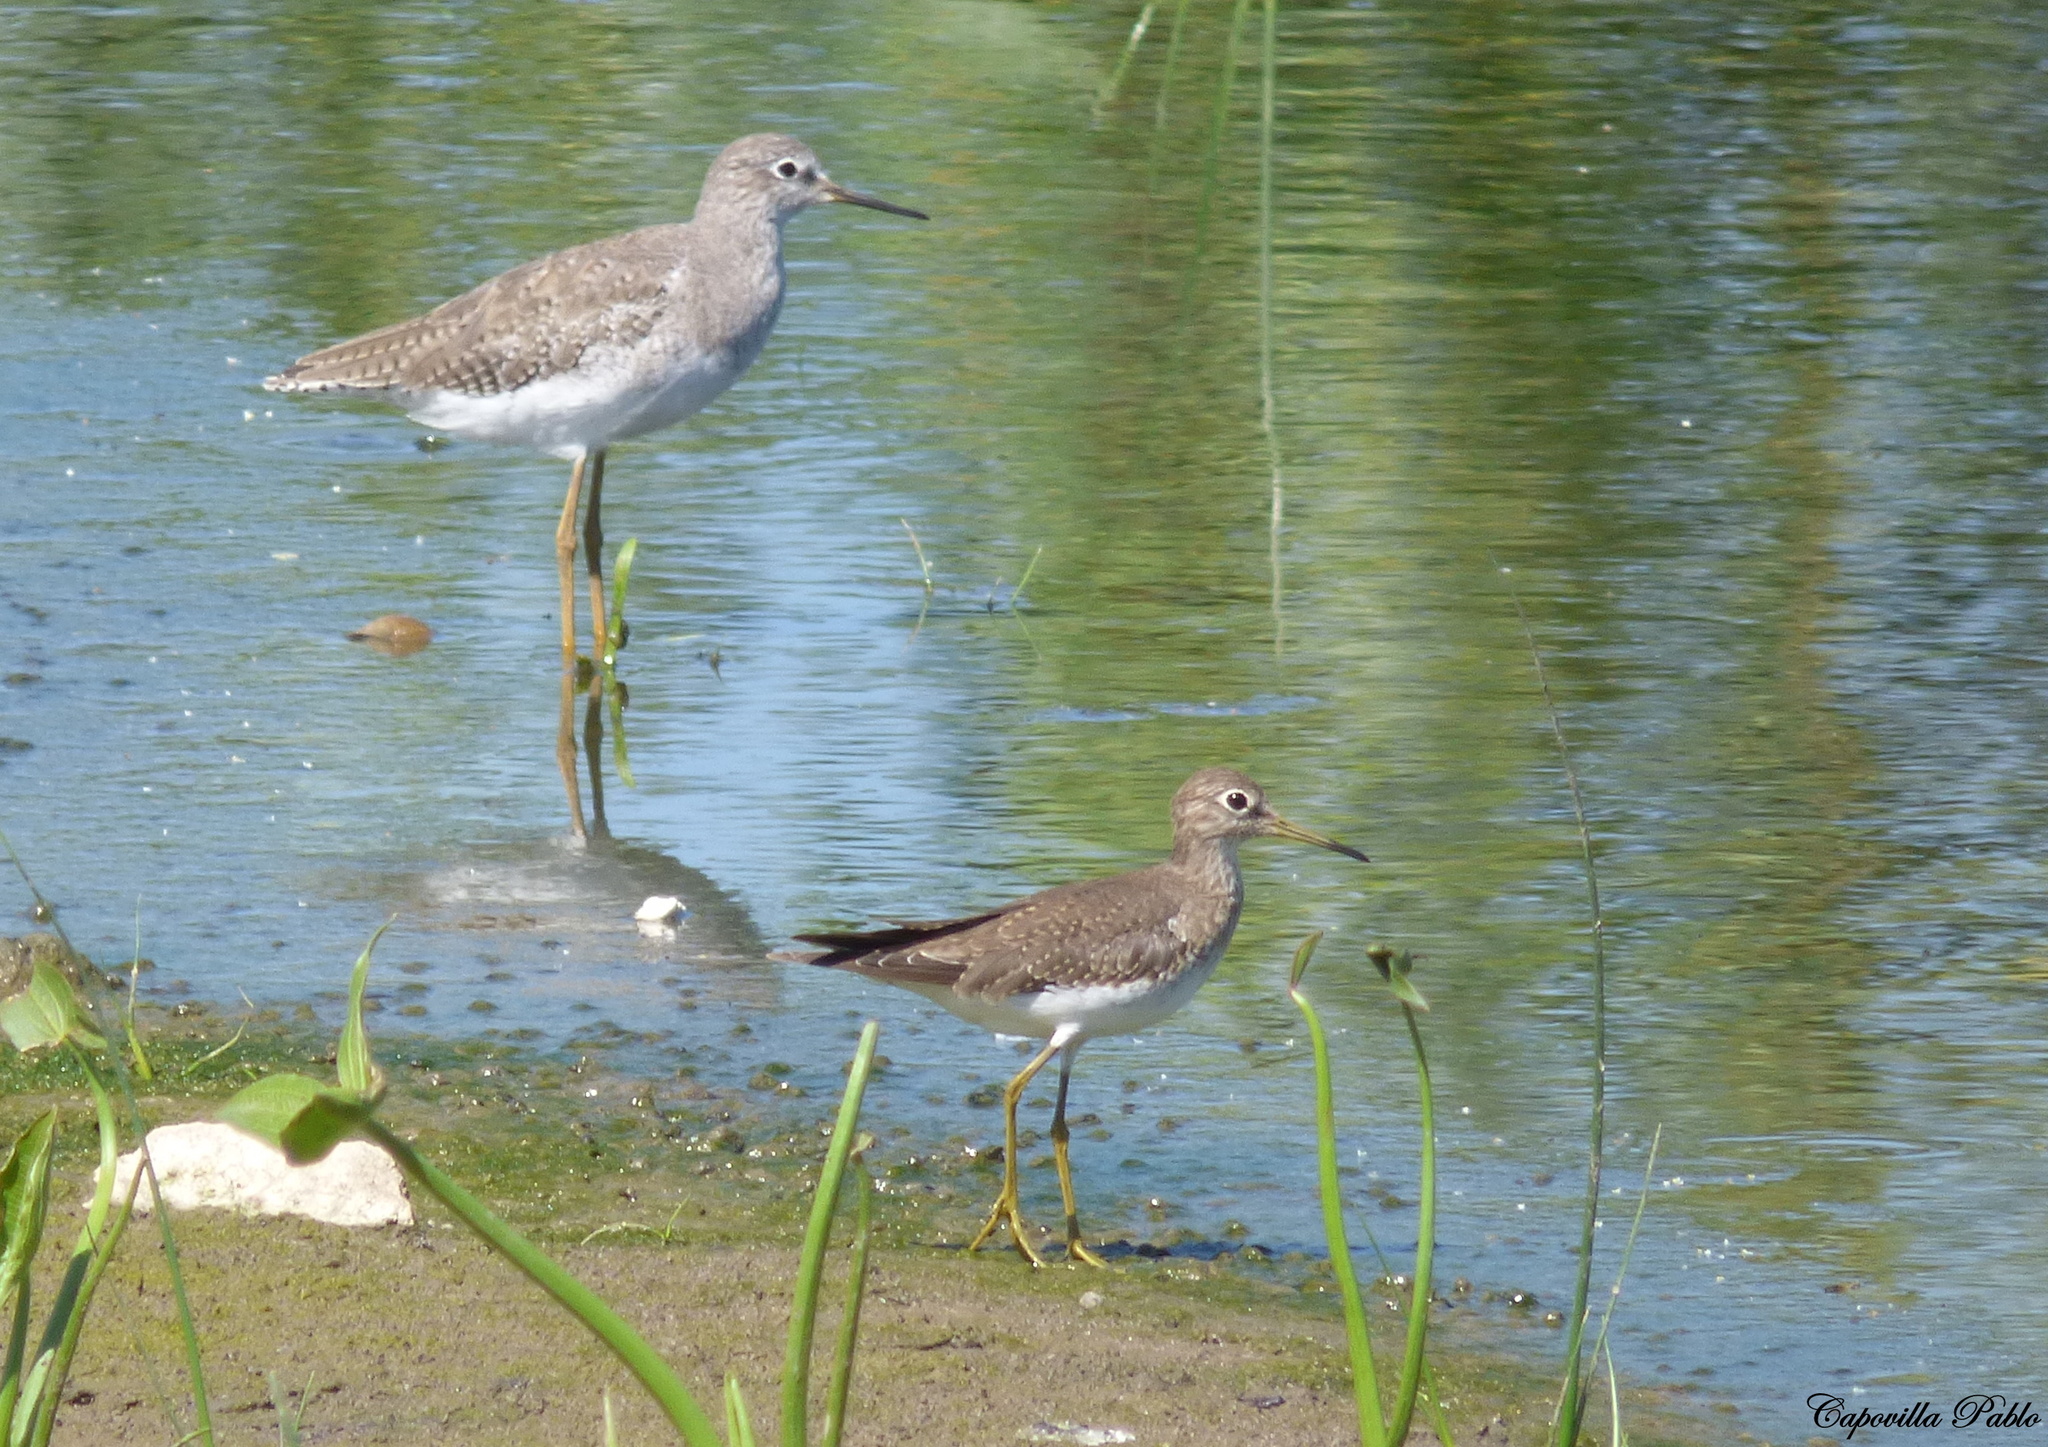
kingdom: Animalia
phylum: Chordata
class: Aves
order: Charadriiformes
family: Scolopacidae
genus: Tringa
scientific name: Tringa solitaria
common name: Solitary sandpiper
